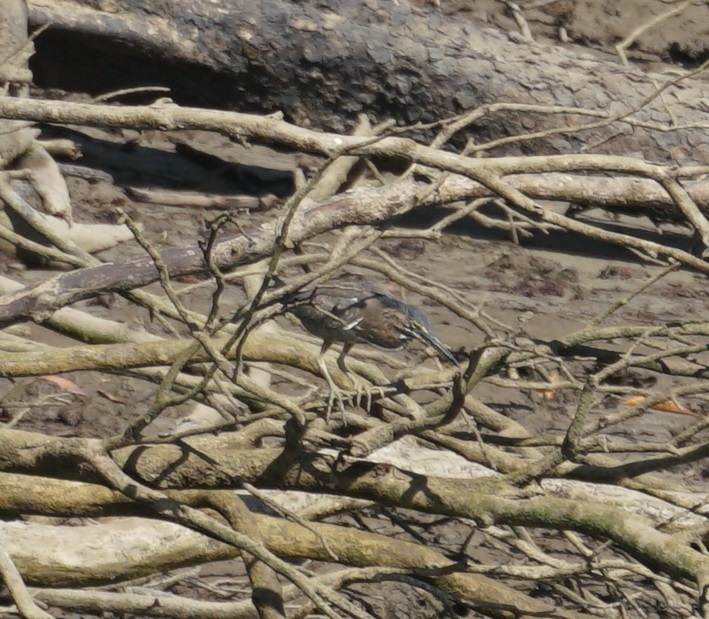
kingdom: Animalia
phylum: Chordata
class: Aves
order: Pelecaniformes
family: Ardeidae
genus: Butorides
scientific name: Butorides striata
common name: Striated heron
